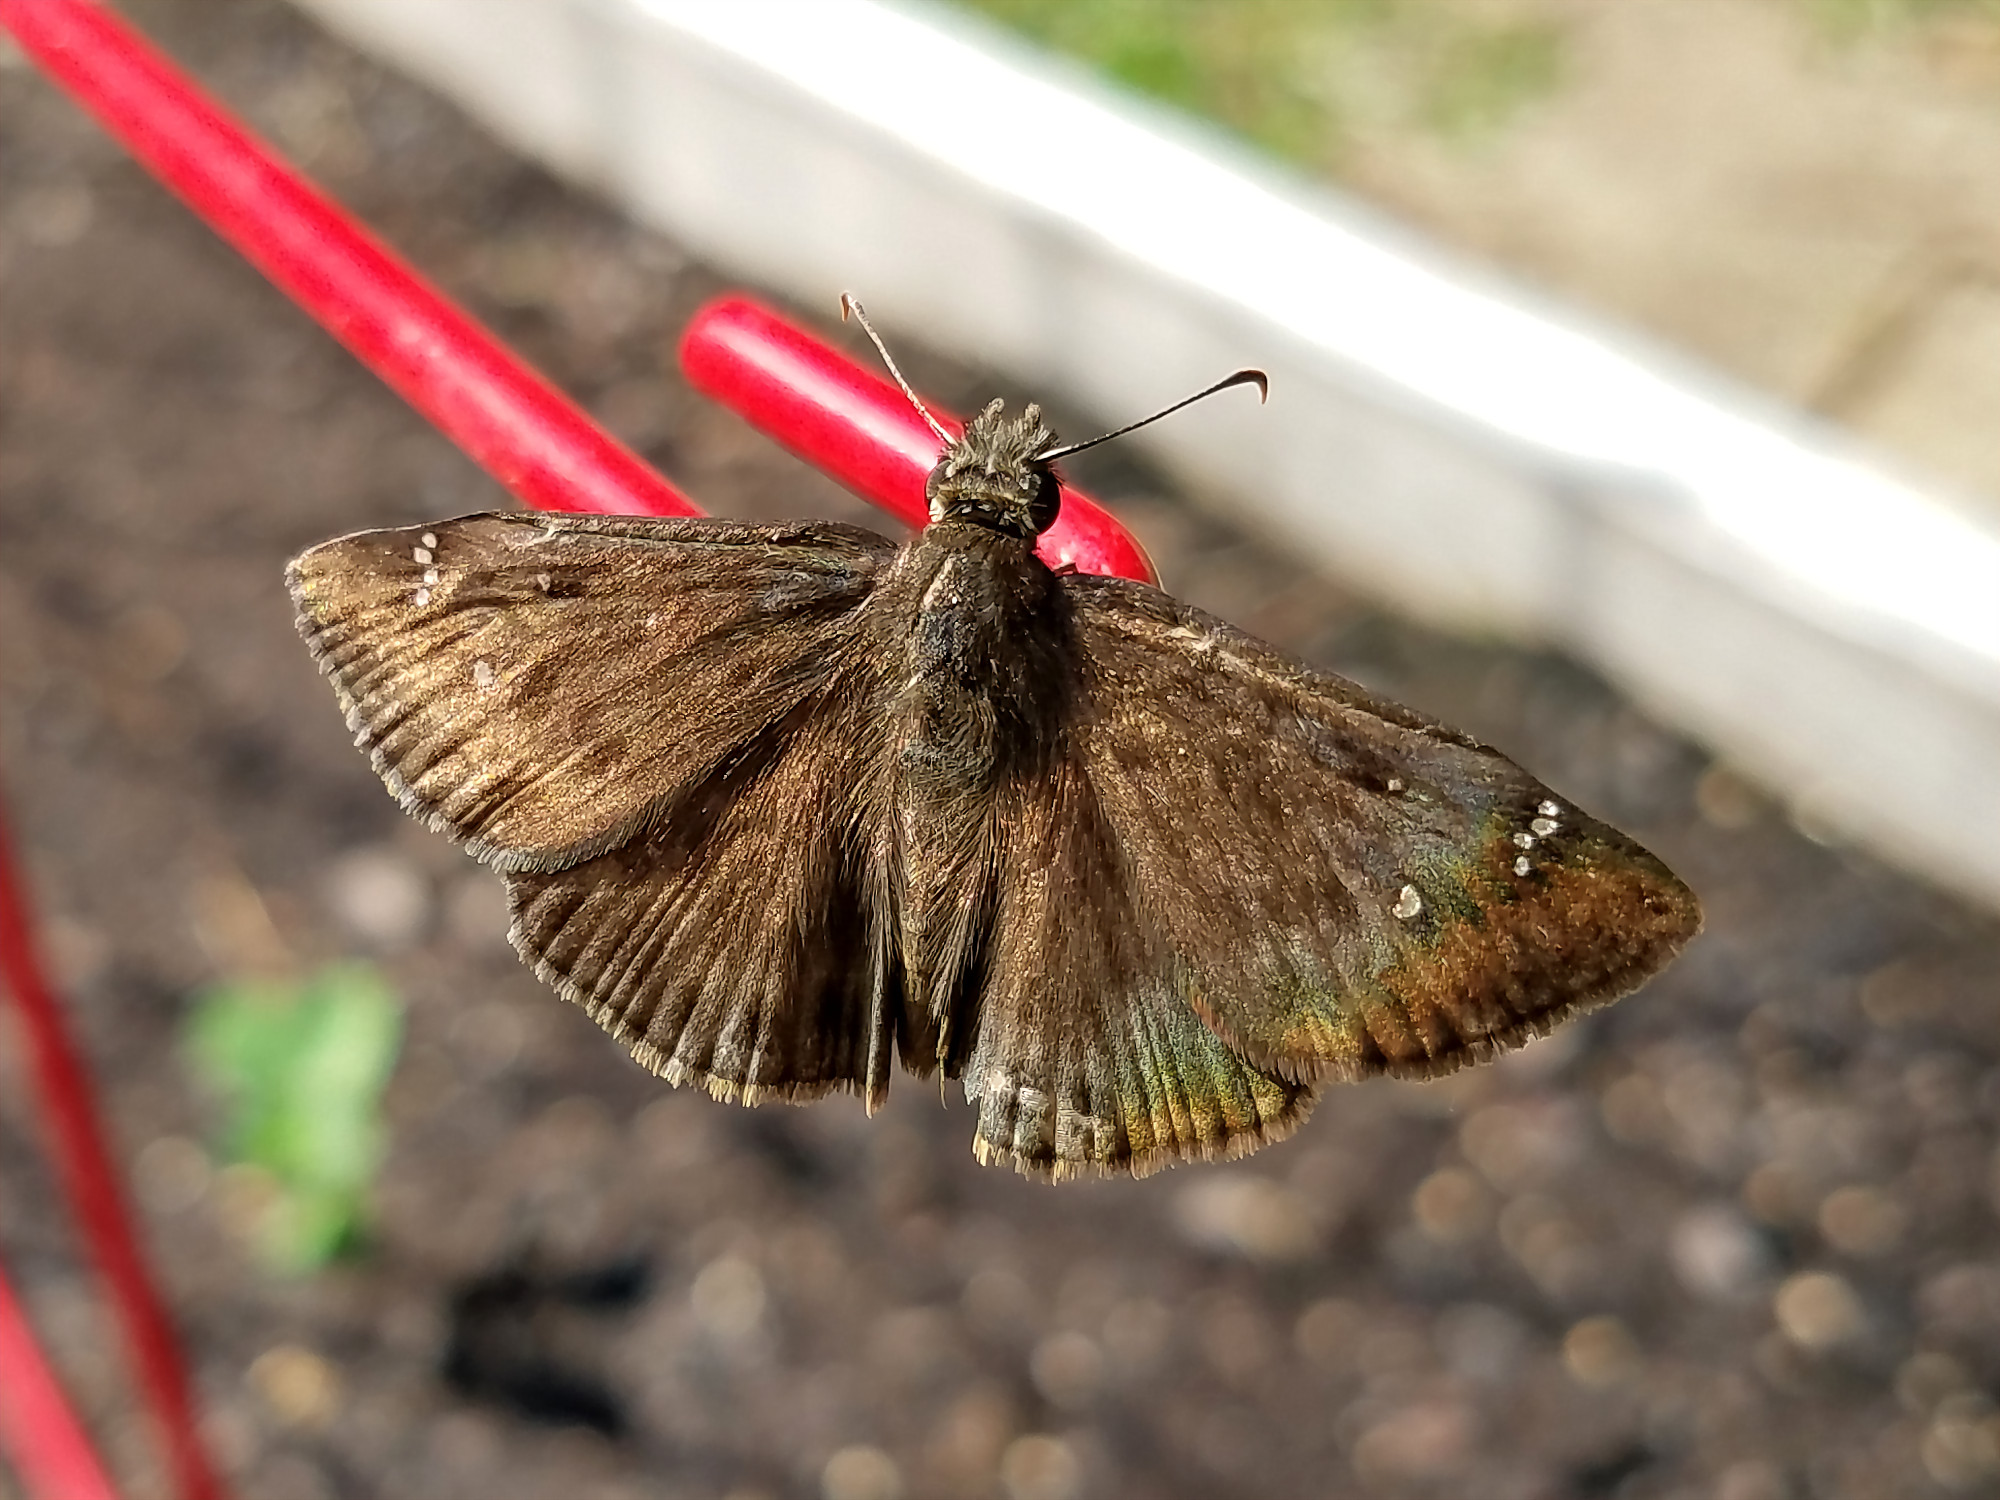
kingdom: Animalia
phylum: Arthropoda
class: Insecta
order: Lepidoptera
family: Hesperiidae
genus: Erynnis
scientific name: Erynnis horatius
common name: Horace's duskywing
